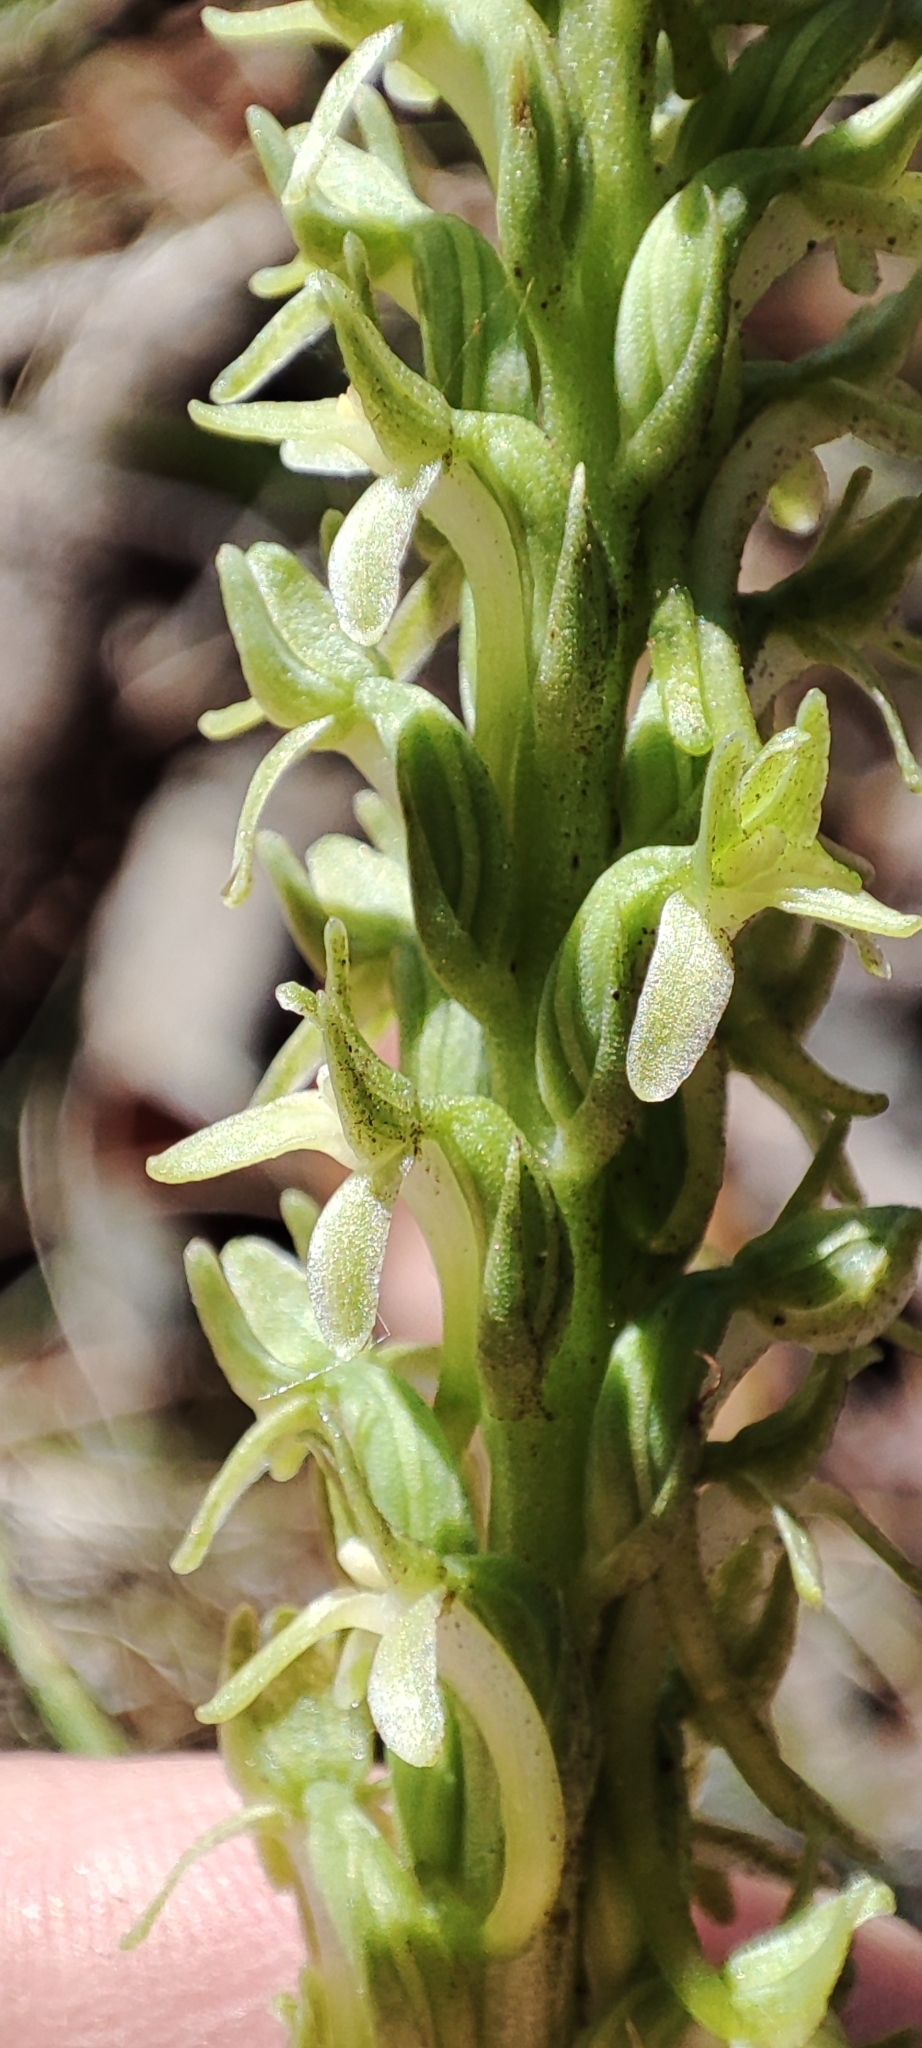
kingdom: Plantae
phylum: Tracheophyta
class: Liliopsida
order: Asparagales
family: Orchidaceae
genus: Platanthera
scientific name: Platanthera elongata
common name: Dense-flowered rein orchid
